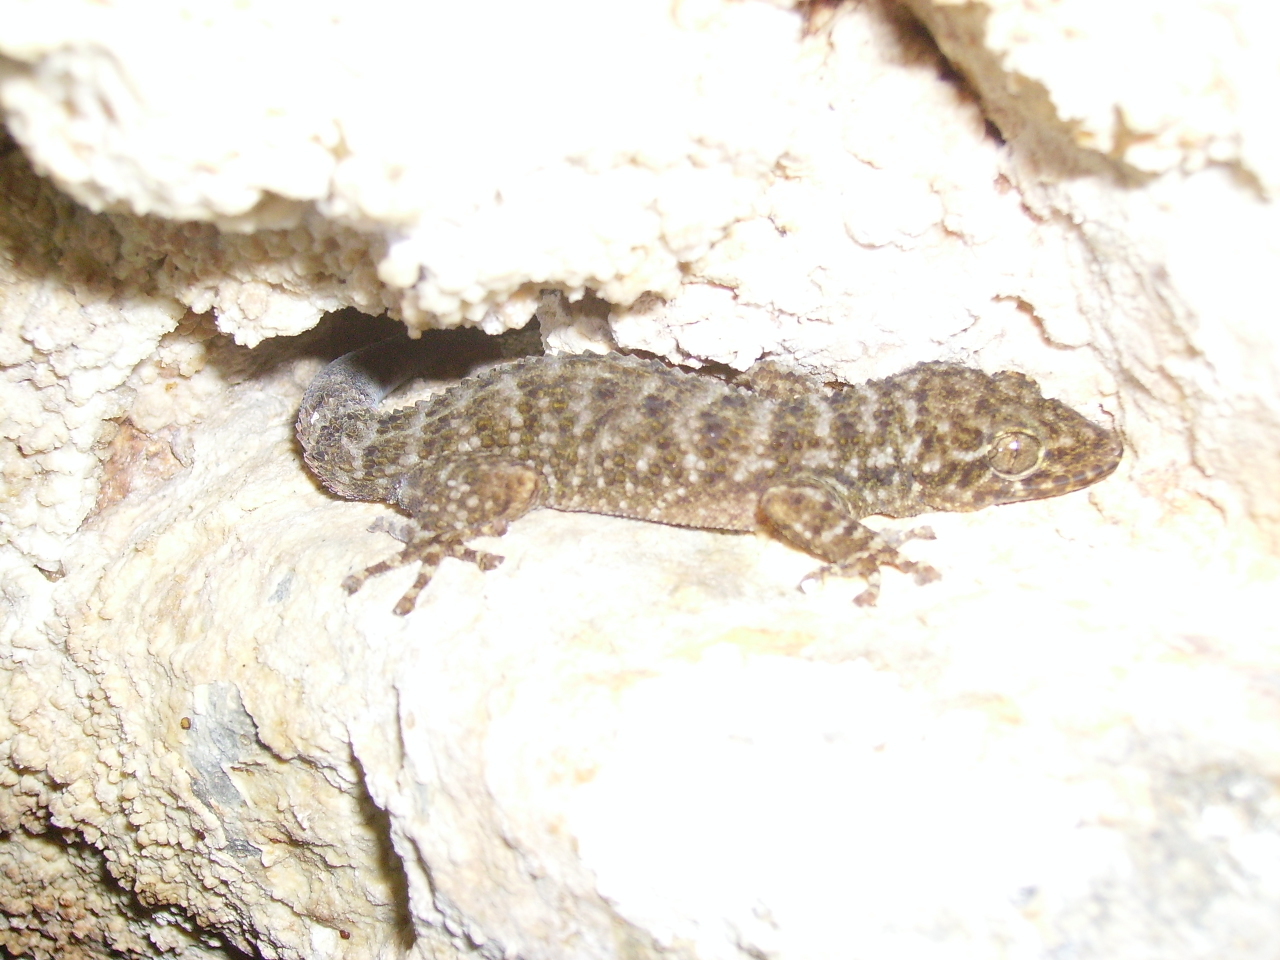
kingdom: Animalia
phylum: Chordata
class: Squamata
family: Phyllodactylidae
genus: Phyllodactylus
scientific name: Phyllodactylus tuberculosus
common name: Yellowbelly  gecko
